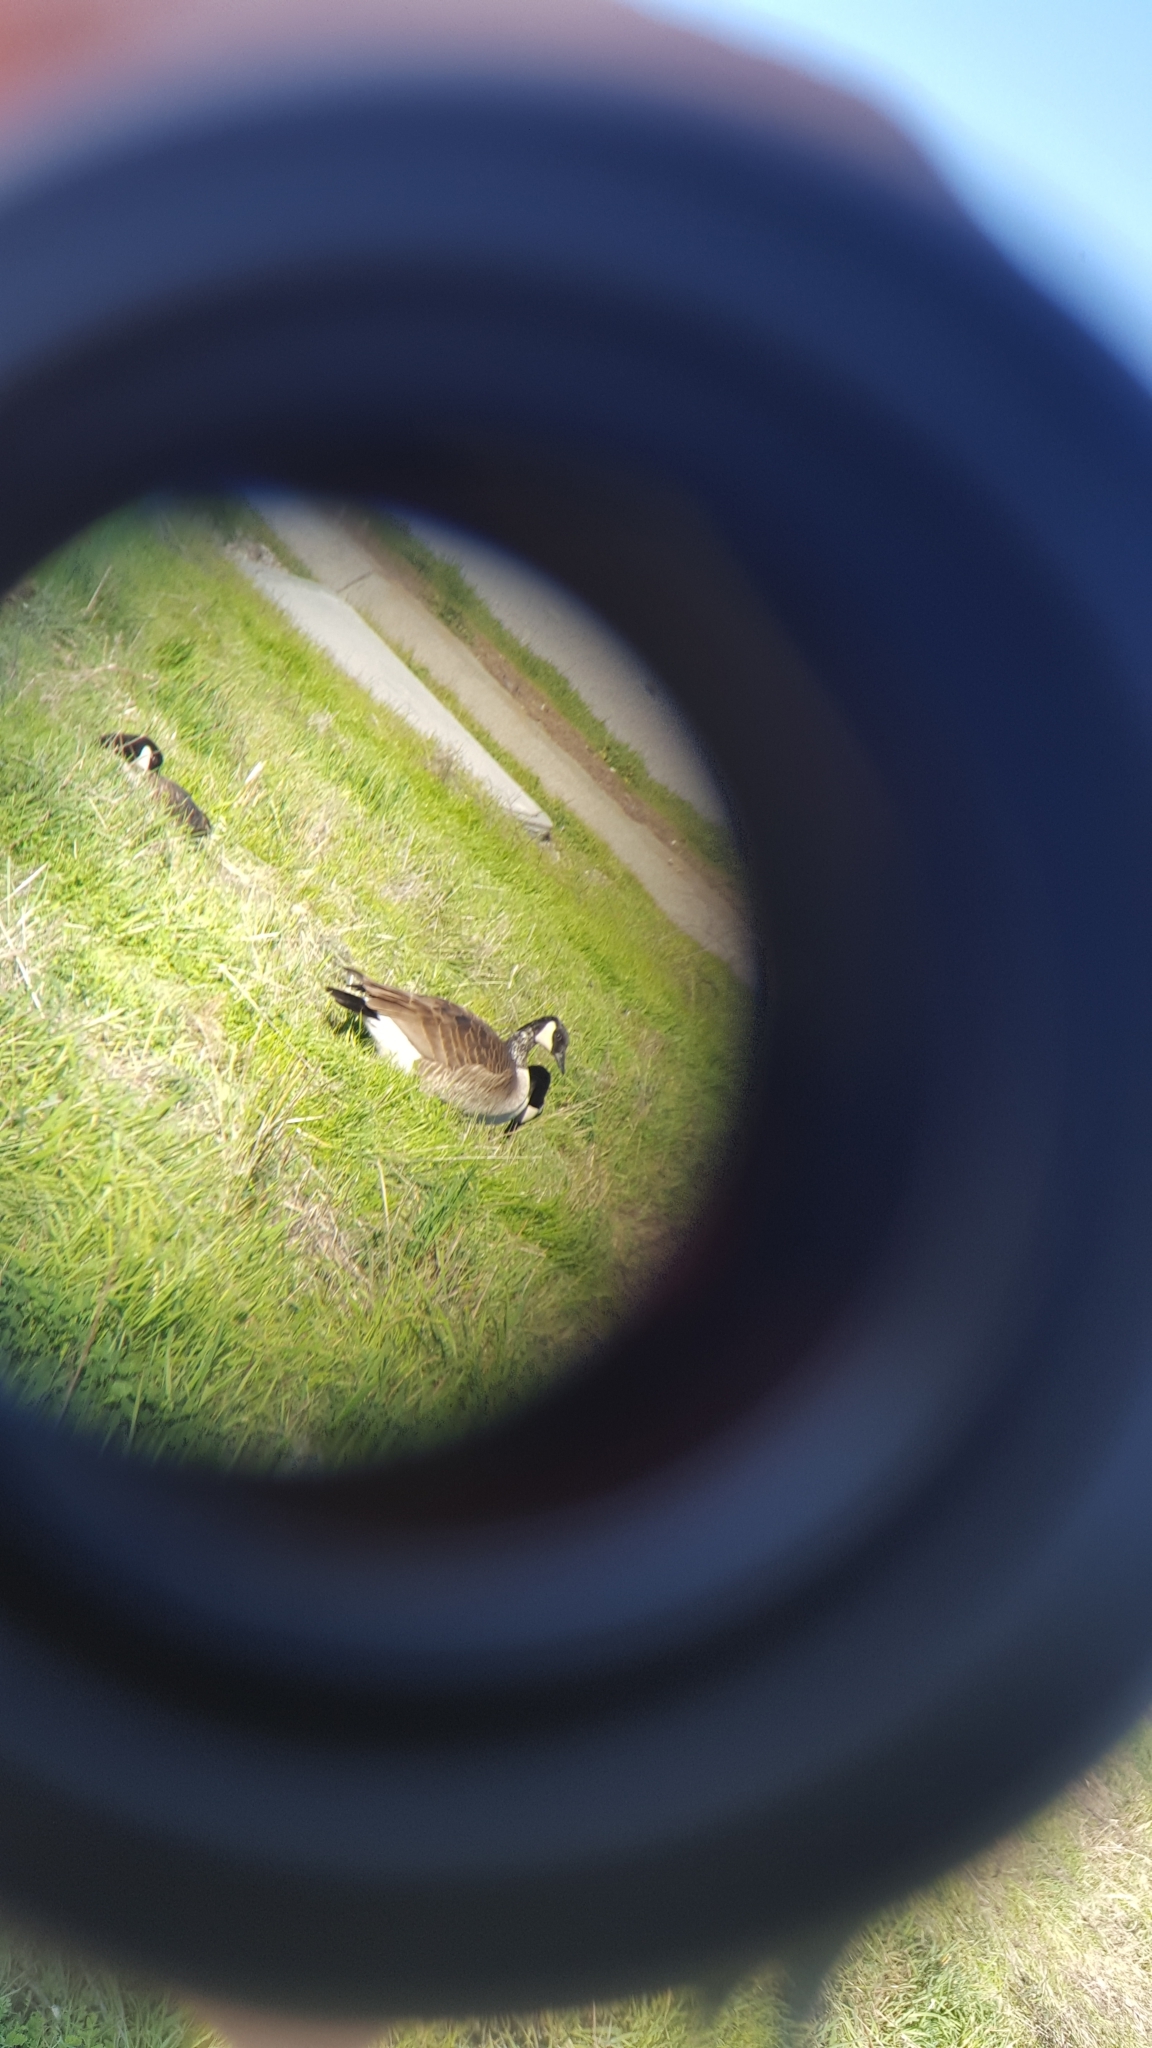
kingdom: Animalia
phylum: Chordata
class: Aves
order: Anseriformes
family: Anatidae
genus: Branta
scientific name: Branta canadensis
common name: Canada goose
